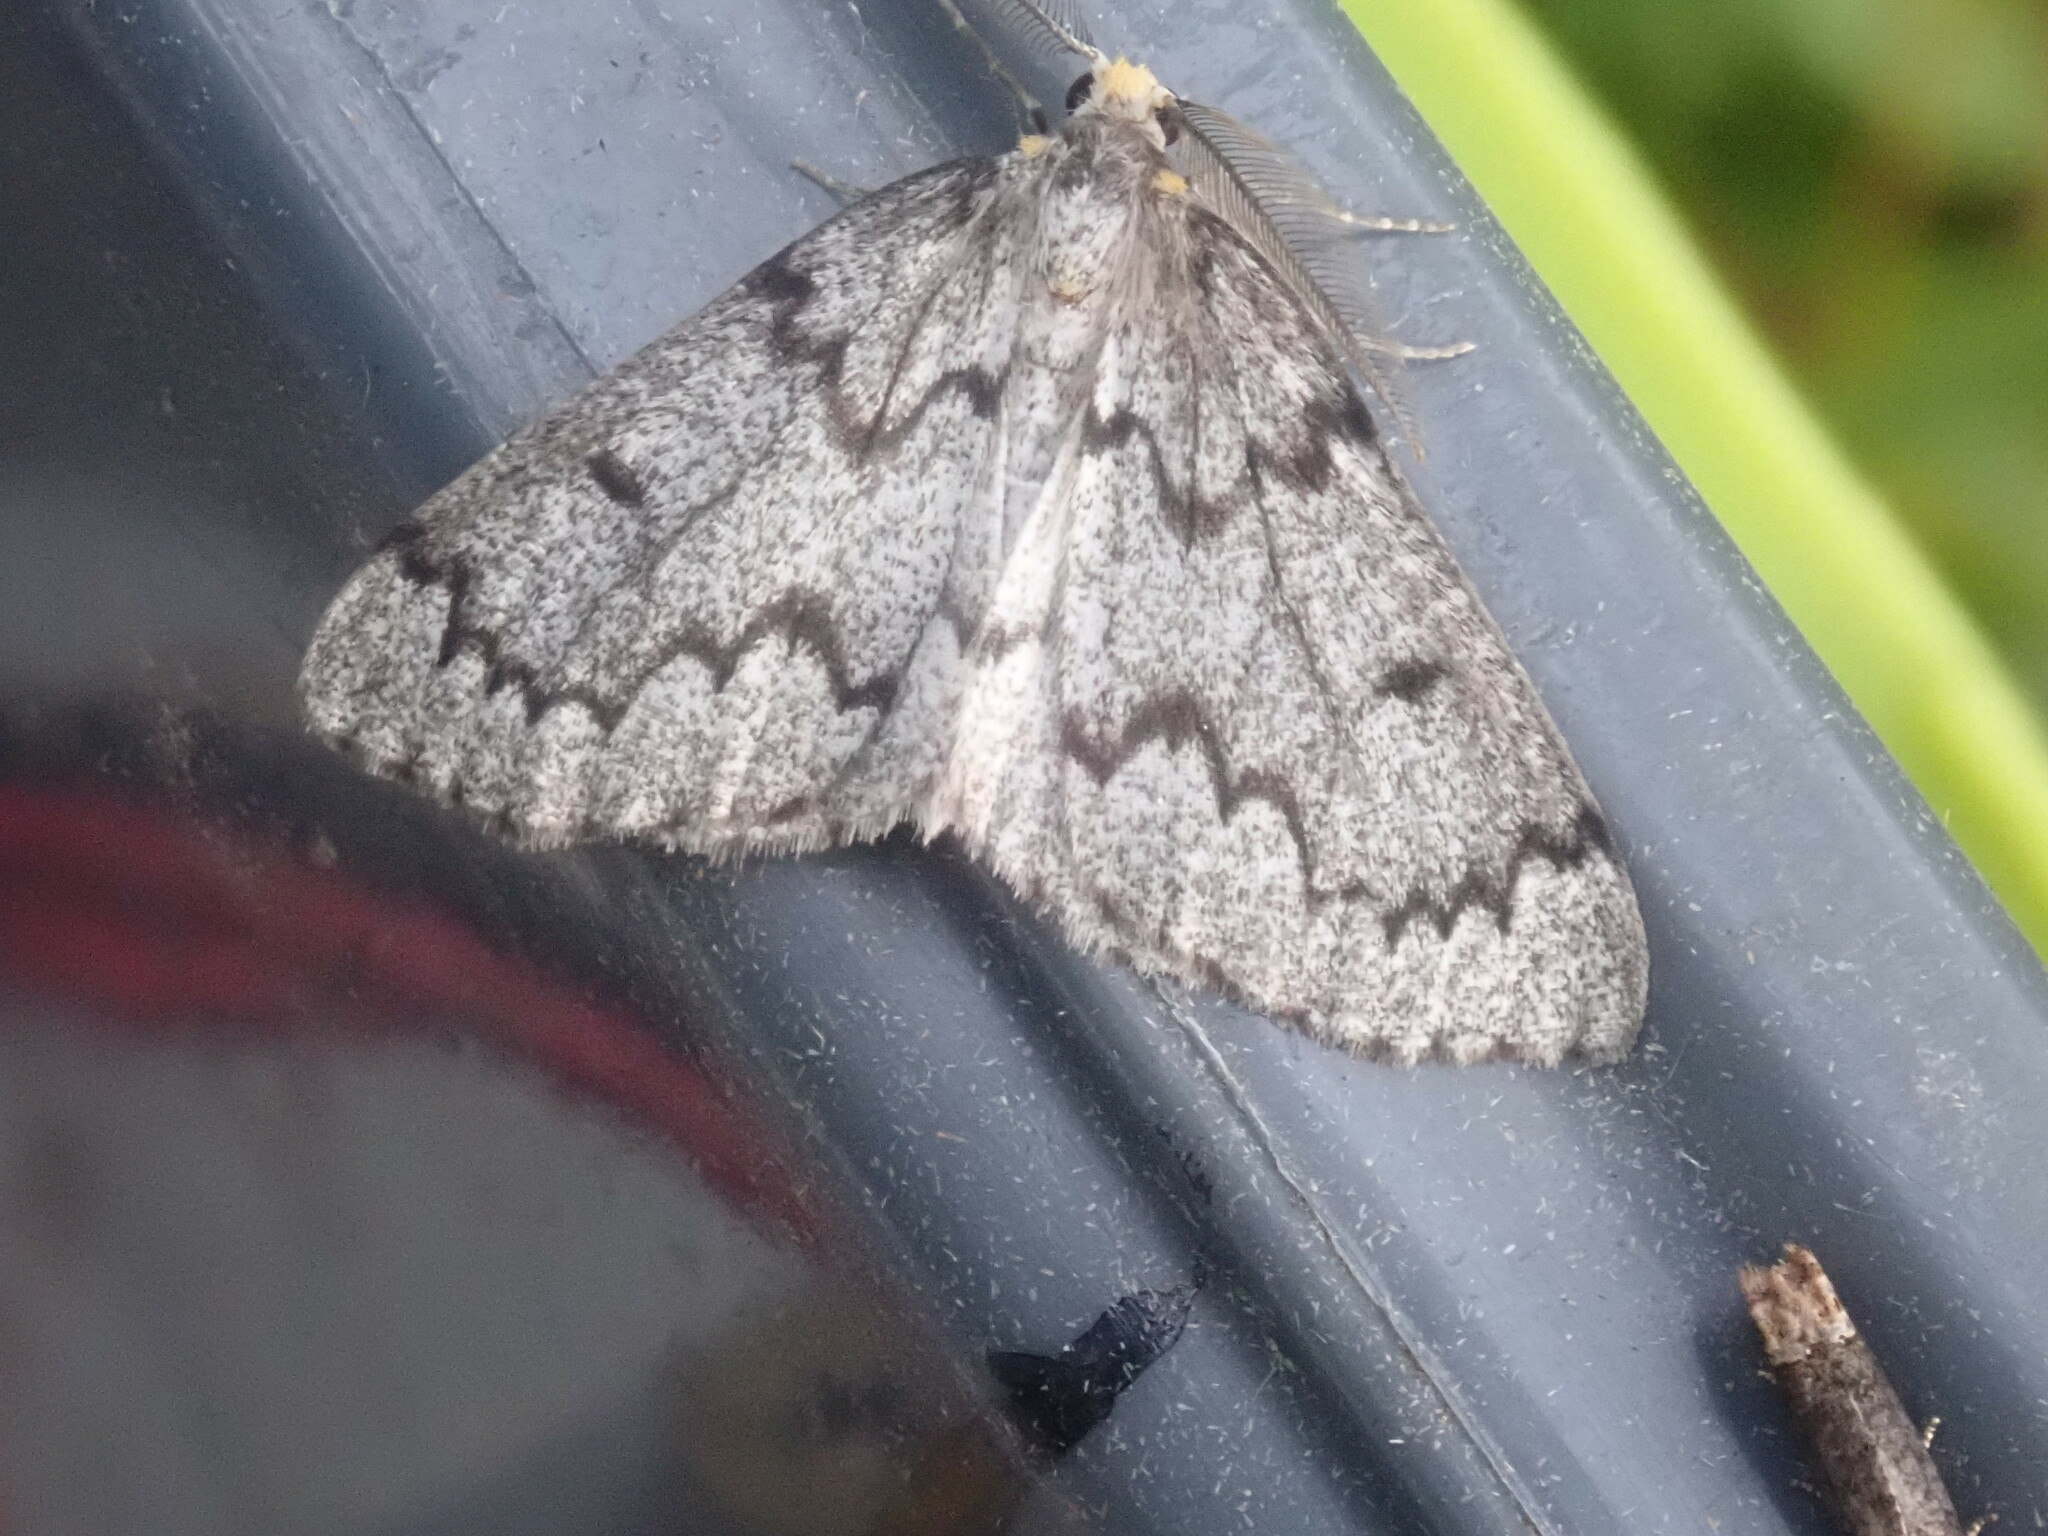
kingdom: Animalia
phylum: Arthropoda
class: Insecta
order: Lepidoptera
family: Geometridae
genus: Nepytia
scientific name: Nepytia canosaria
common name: False hemlock looper
